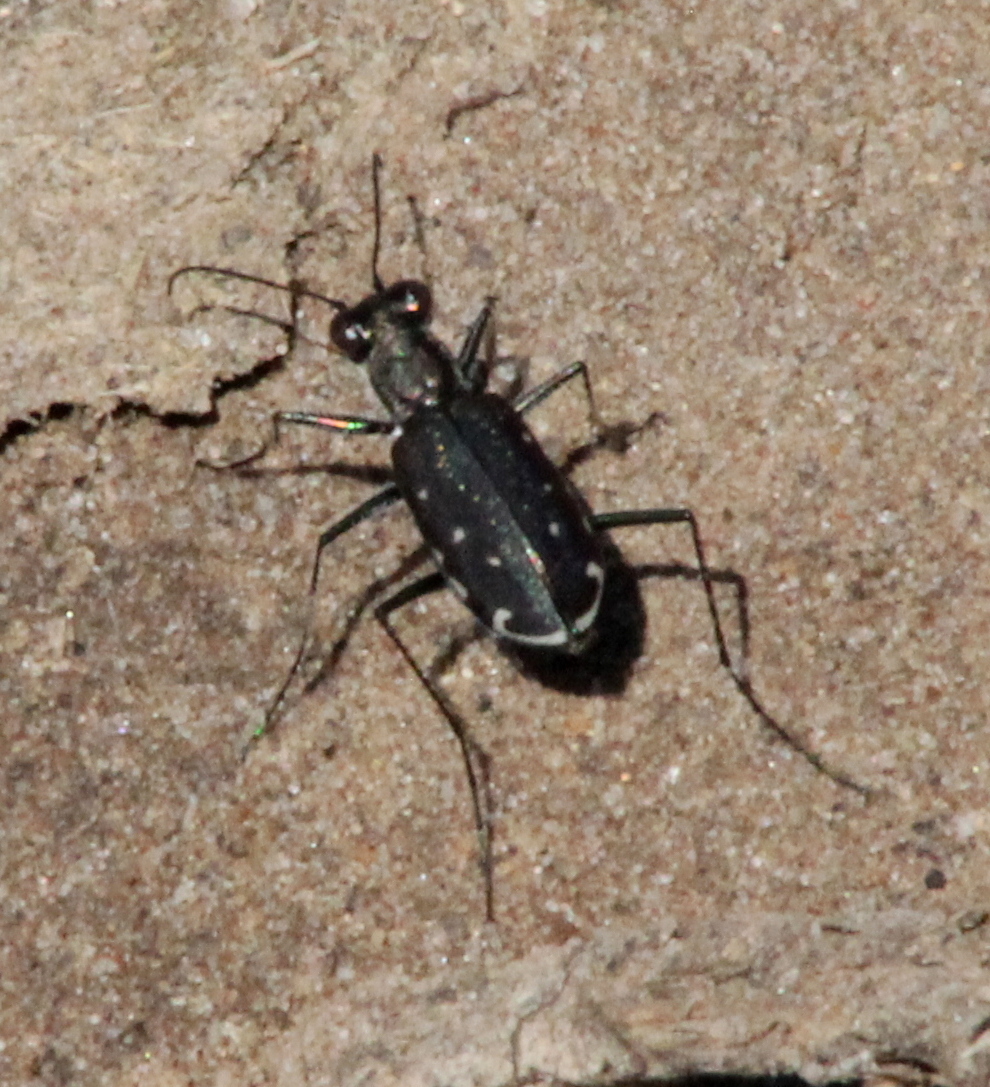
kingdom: Animalia
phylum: Arthropoda
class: Insecta
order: Coleoptera
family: Carabidae
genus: Cicindela
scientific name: Cicindela punctulata
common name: Punctured tiger beetle
